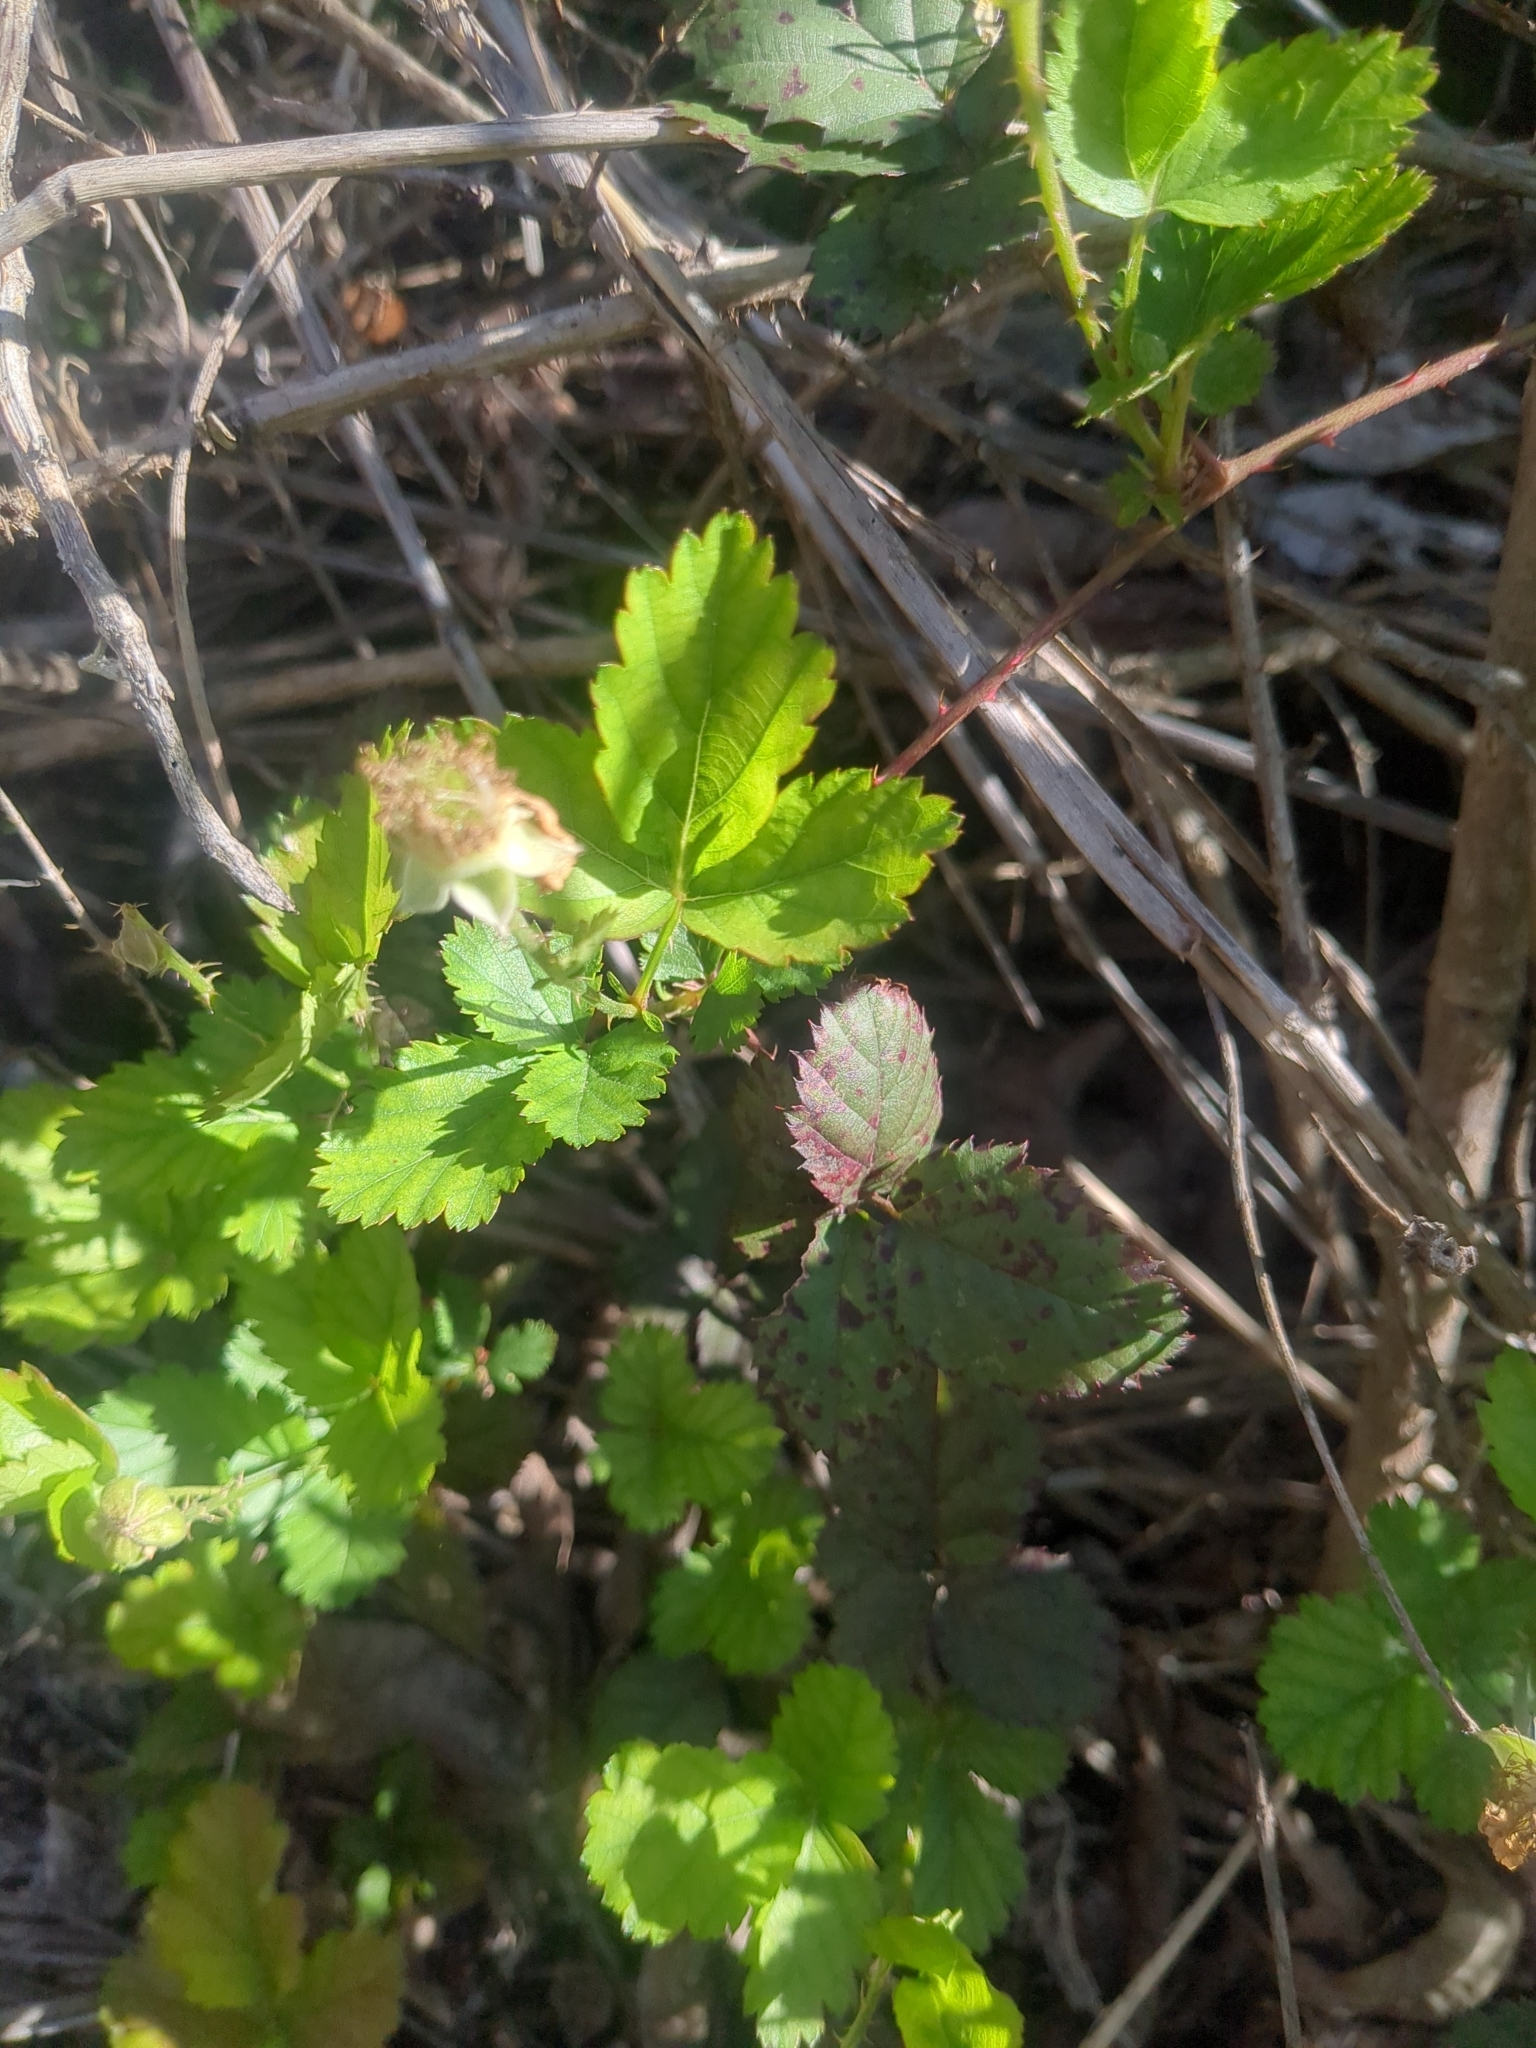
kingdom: Plantae
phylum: Tracheophyta
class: Magnoliopsida
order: Rosales
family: Rosaceae
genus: Rubus
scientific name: Rubus flagellaris
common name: American dewberry
